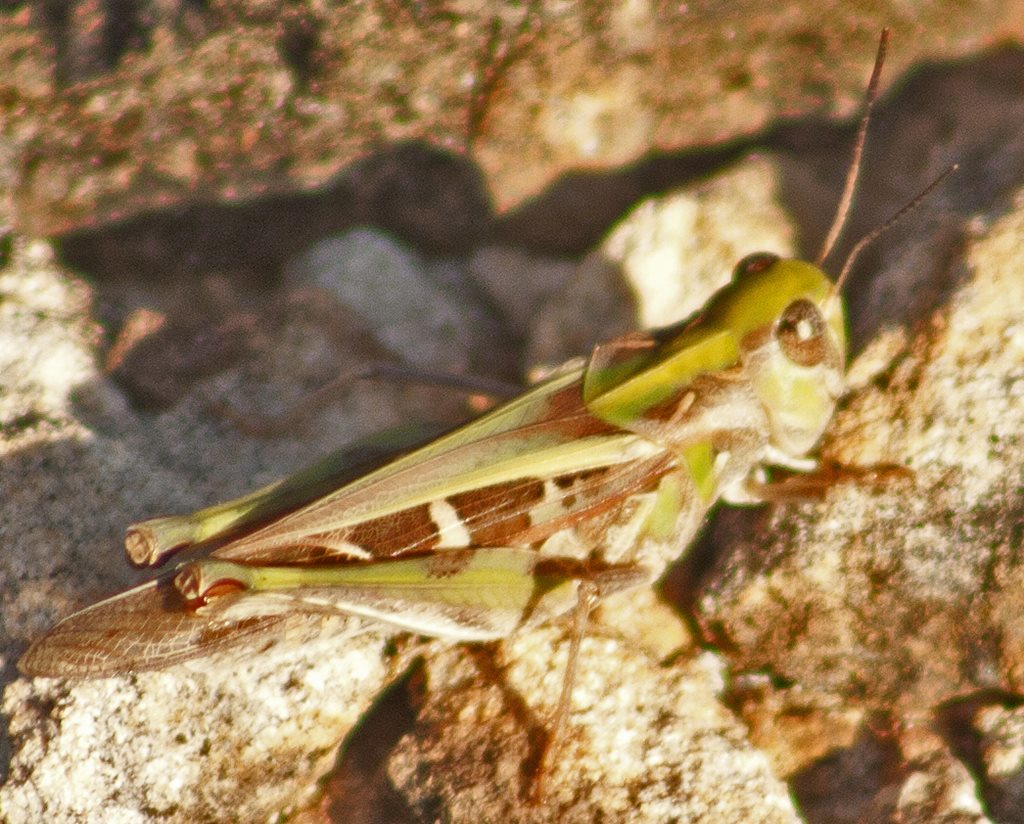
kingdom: Animalia
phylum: Arthropoda
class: Insecta
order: Orthoptera
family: Acrididae
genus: Oedaleus
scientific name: Oedaleus australis
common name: Eastern oedaleus
